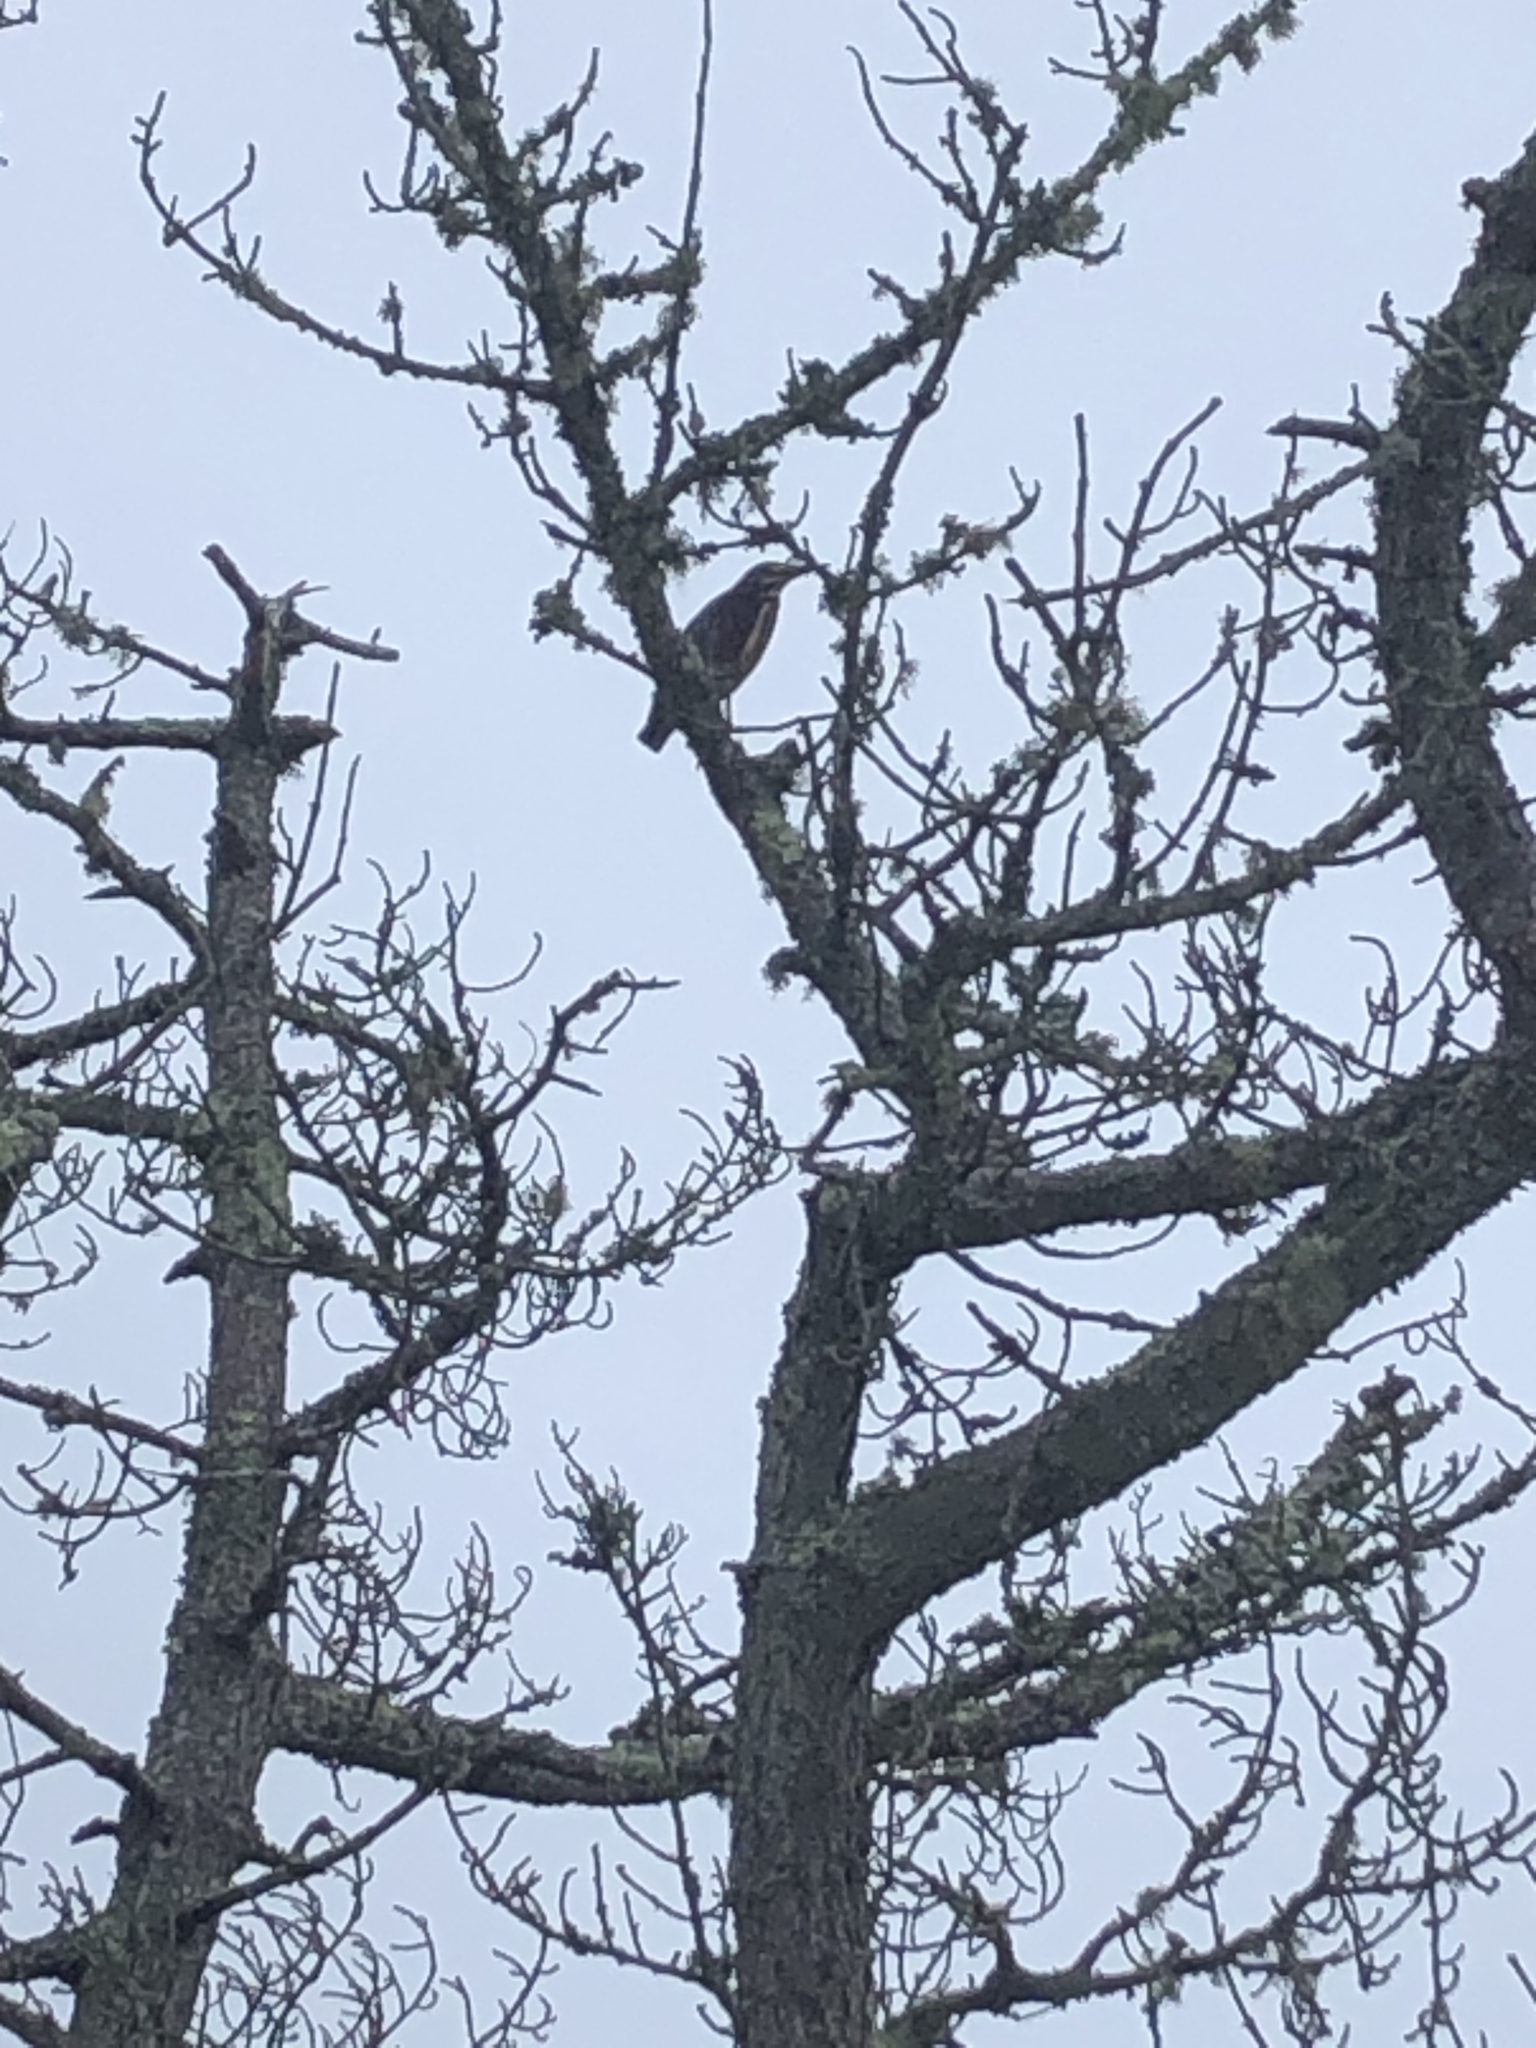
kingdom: Animalia
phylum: Chordata
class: Aves
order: Pelecaniformes
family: Ardeidae
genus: Butorides
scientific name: Butorides virescens
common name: Green heron
